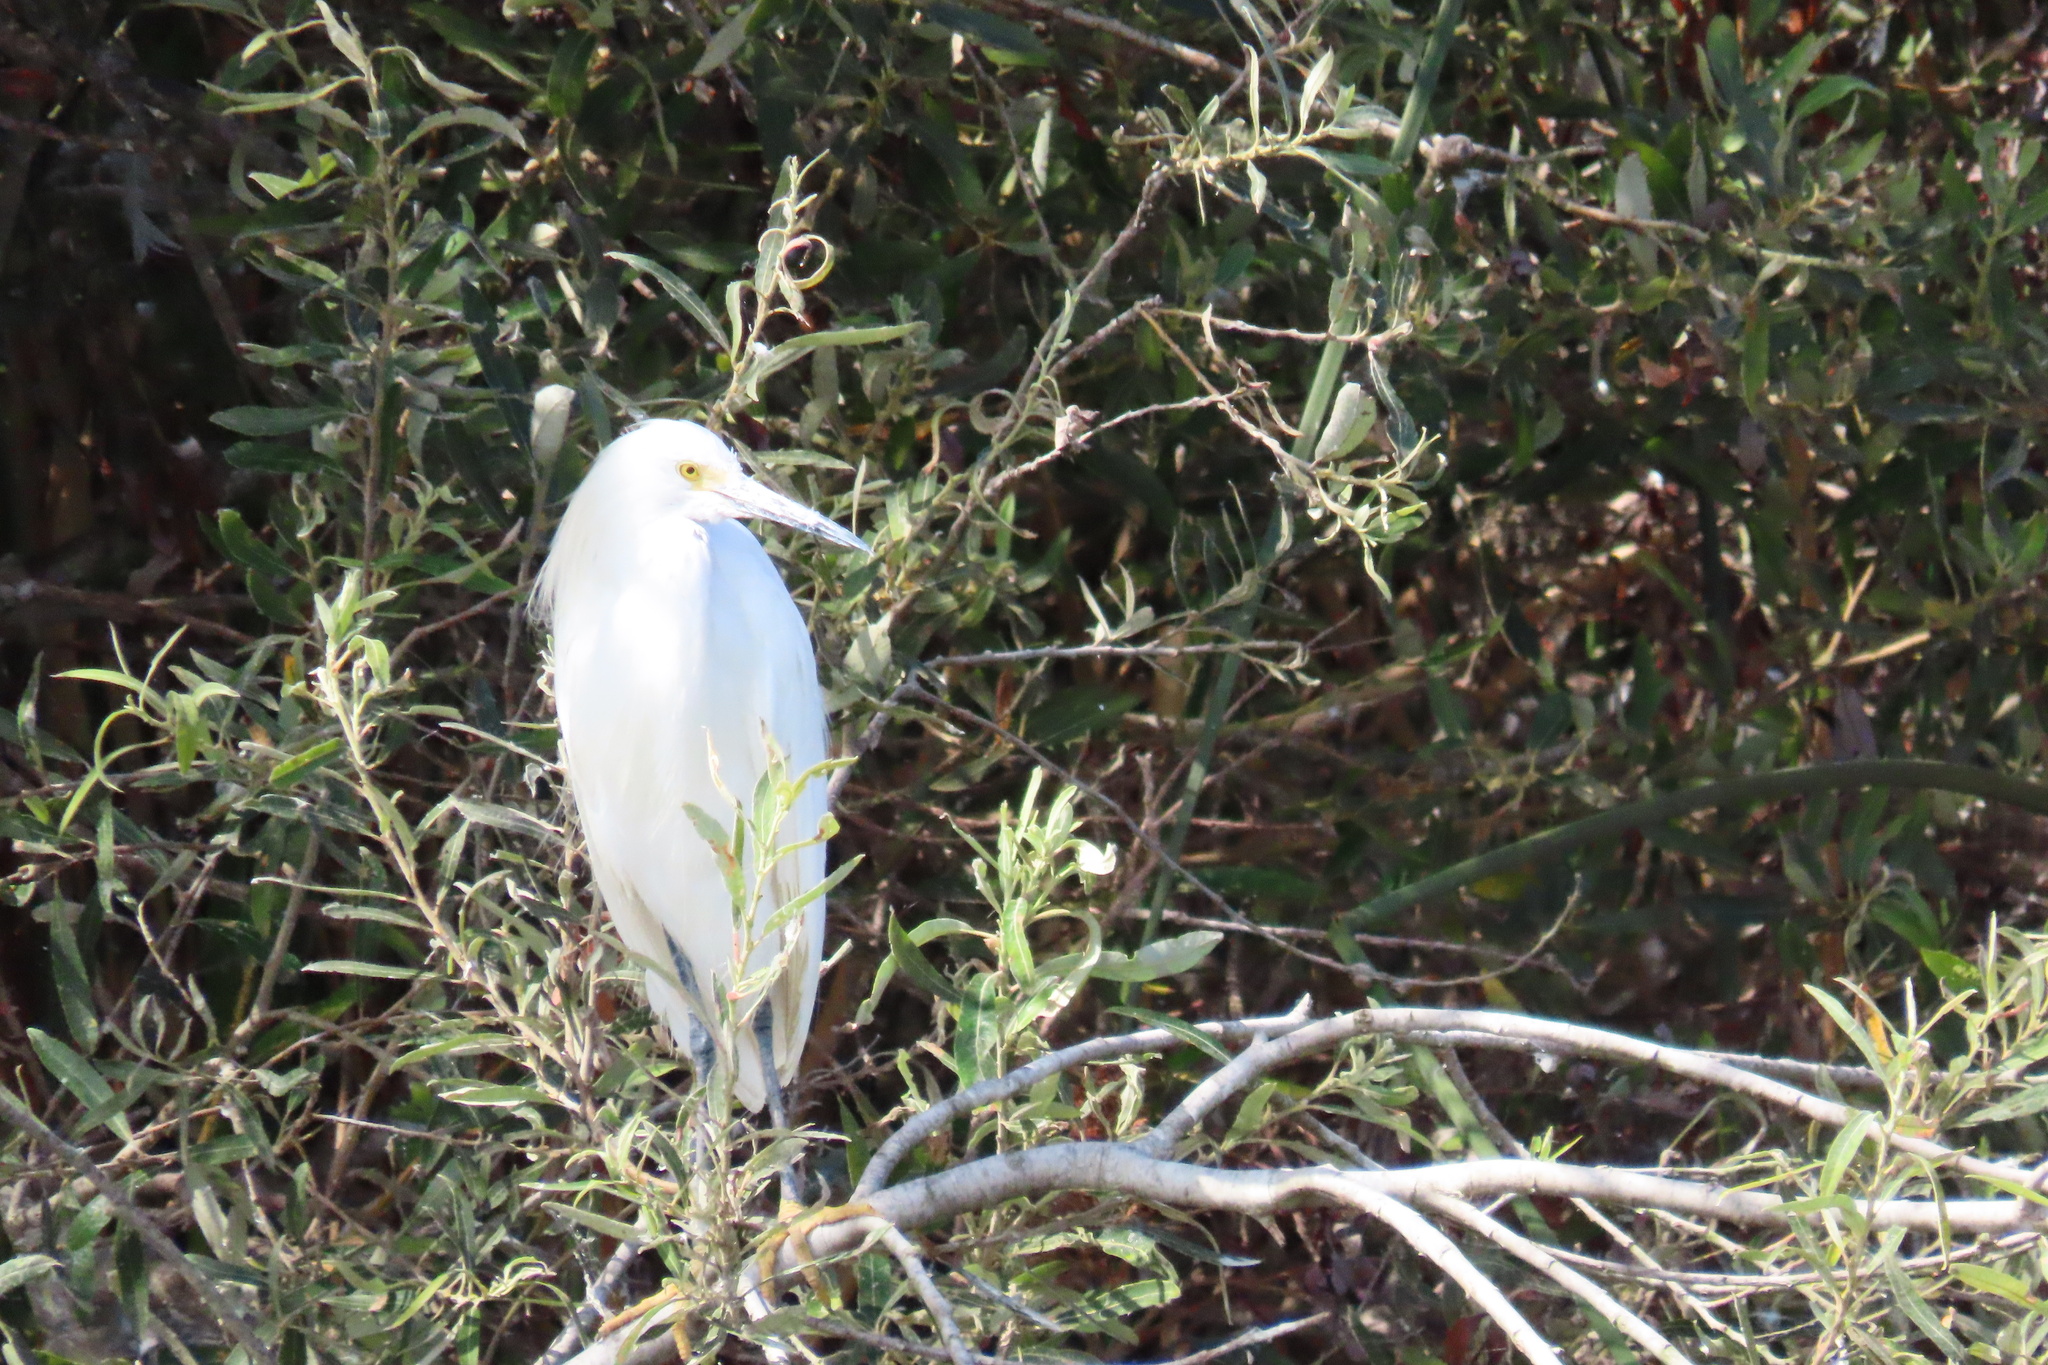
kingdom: Animalia
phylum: Chordata
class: Aves
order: Pelecaniformes
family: Ardeidae
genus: Egretta
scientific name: Egretta thula
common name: Snowy egret
